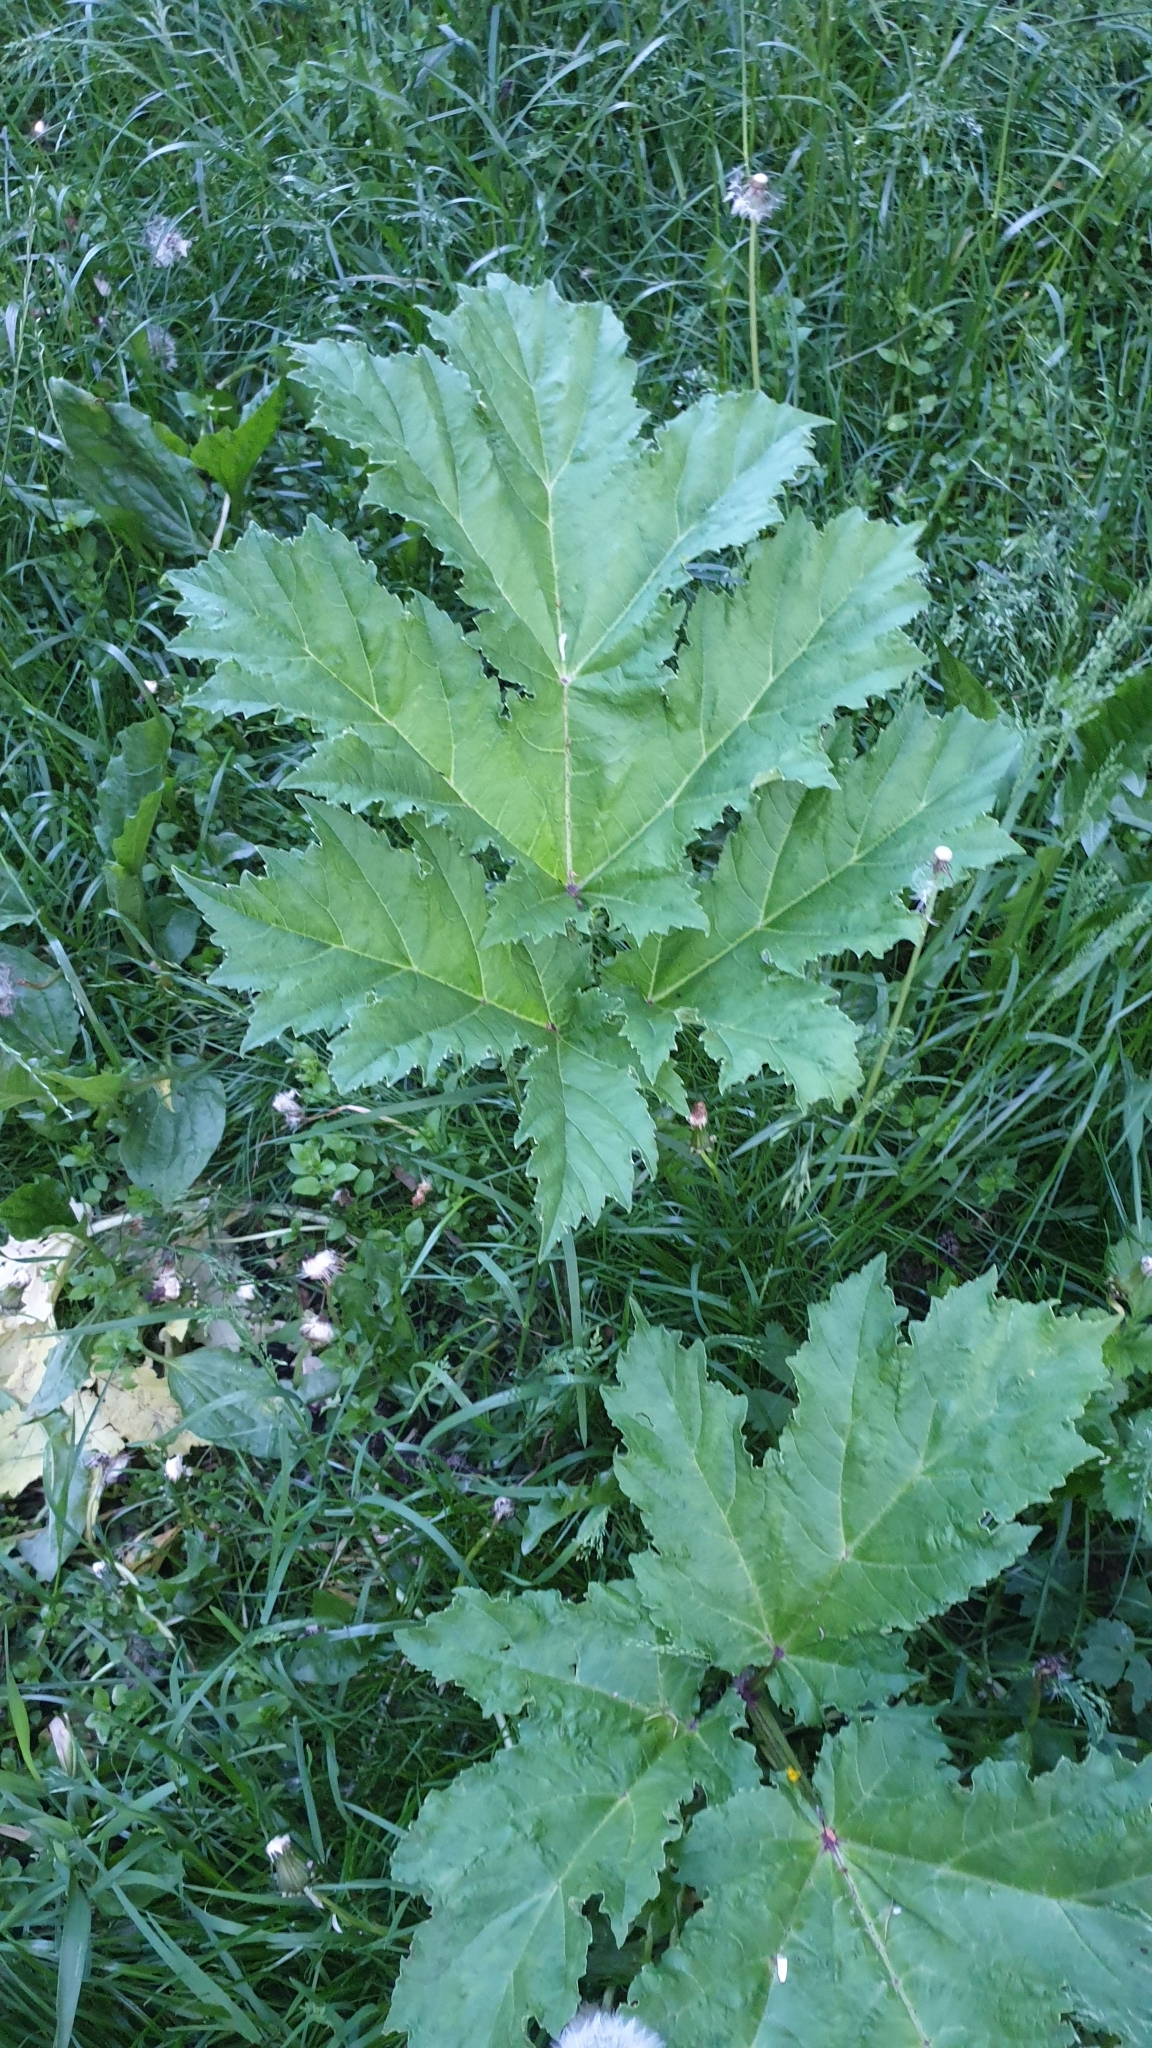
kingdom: Plantae
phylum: Tracheophyta
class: Magnoliopsida
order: Apiales
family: Apiaceae
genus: Heracleum
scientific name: Heracleum sosnowskyi
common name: Sosnowsky's hogweed
